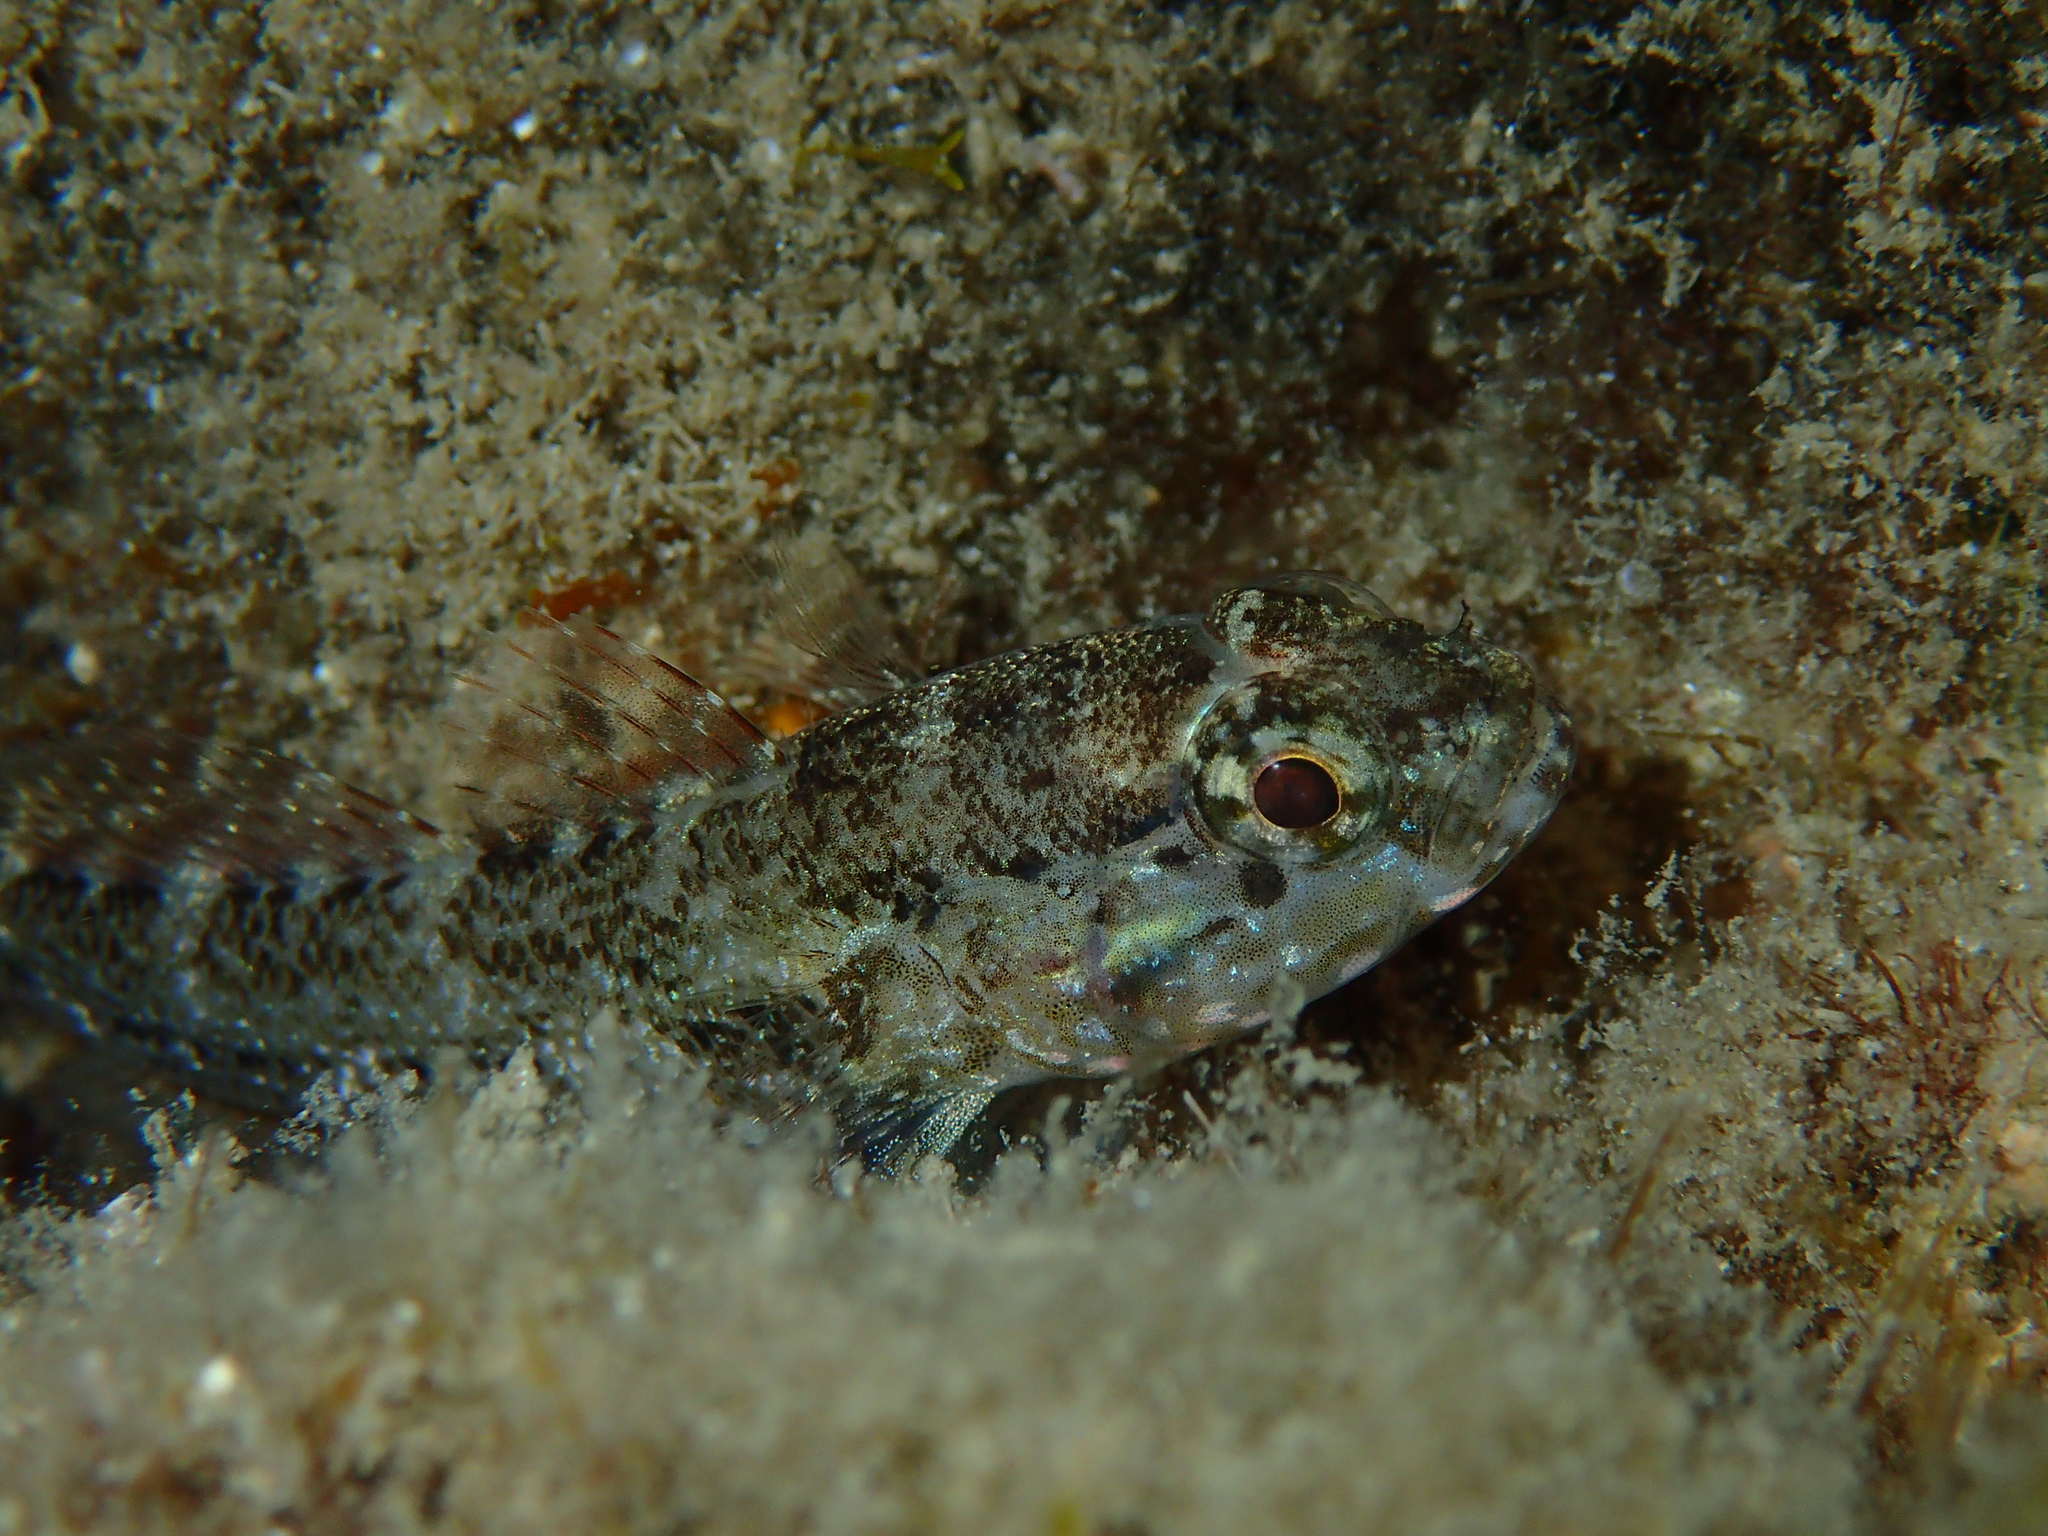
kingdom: Animalia
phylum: Chordata
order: Perciformes
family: Gobiidae
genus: Gobius
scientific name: Gobius paganellus
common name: Rock goby
